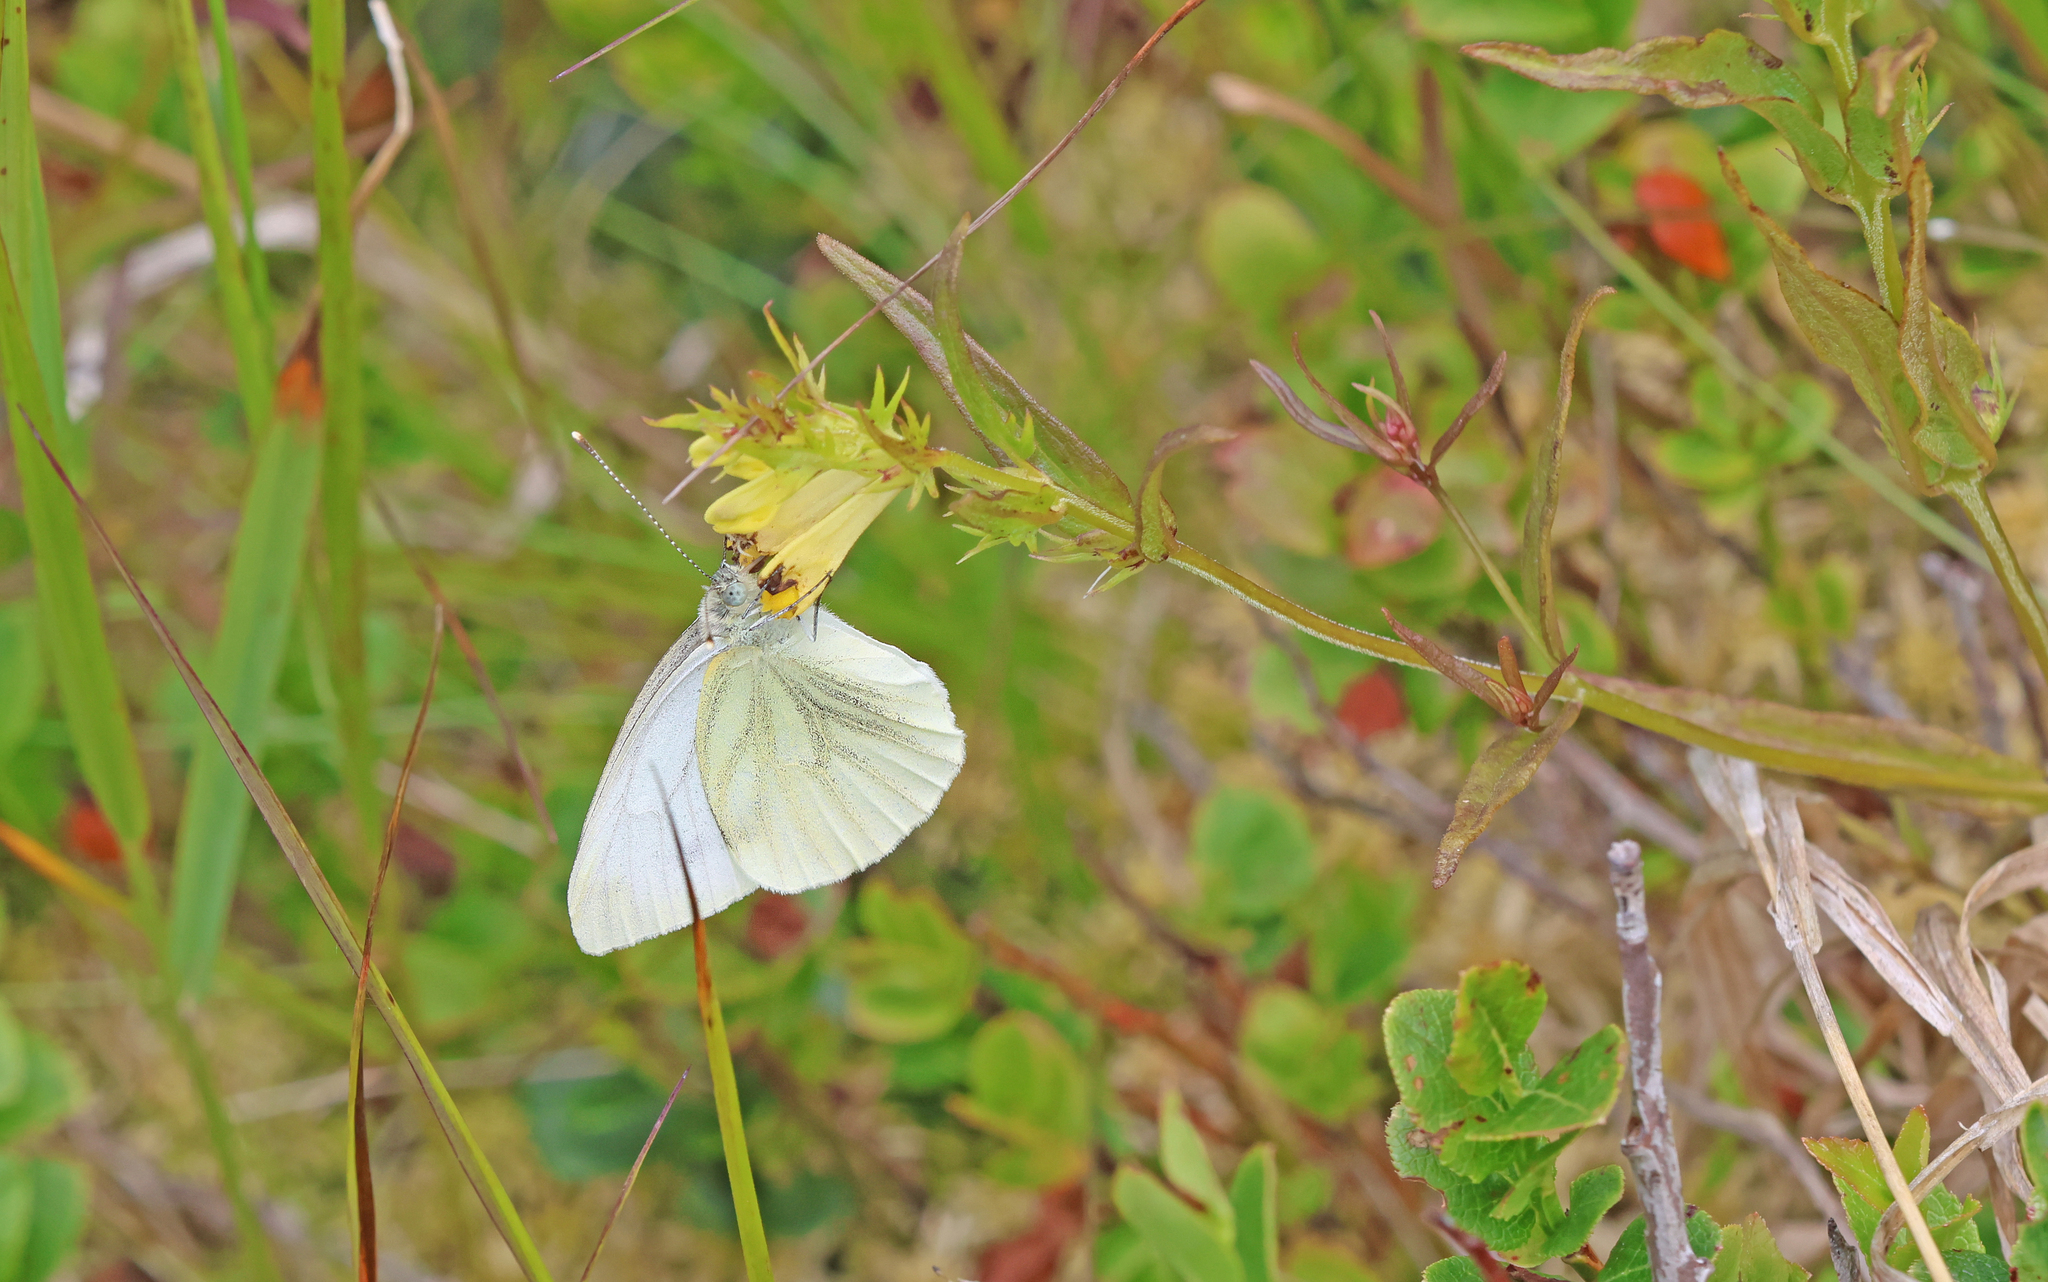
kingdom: Animalia
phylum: Arthropoda
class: Insecta
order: Lepidoptera
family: Pieridae
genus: Pieris
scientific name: Pieris napi
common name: Green-veined white
